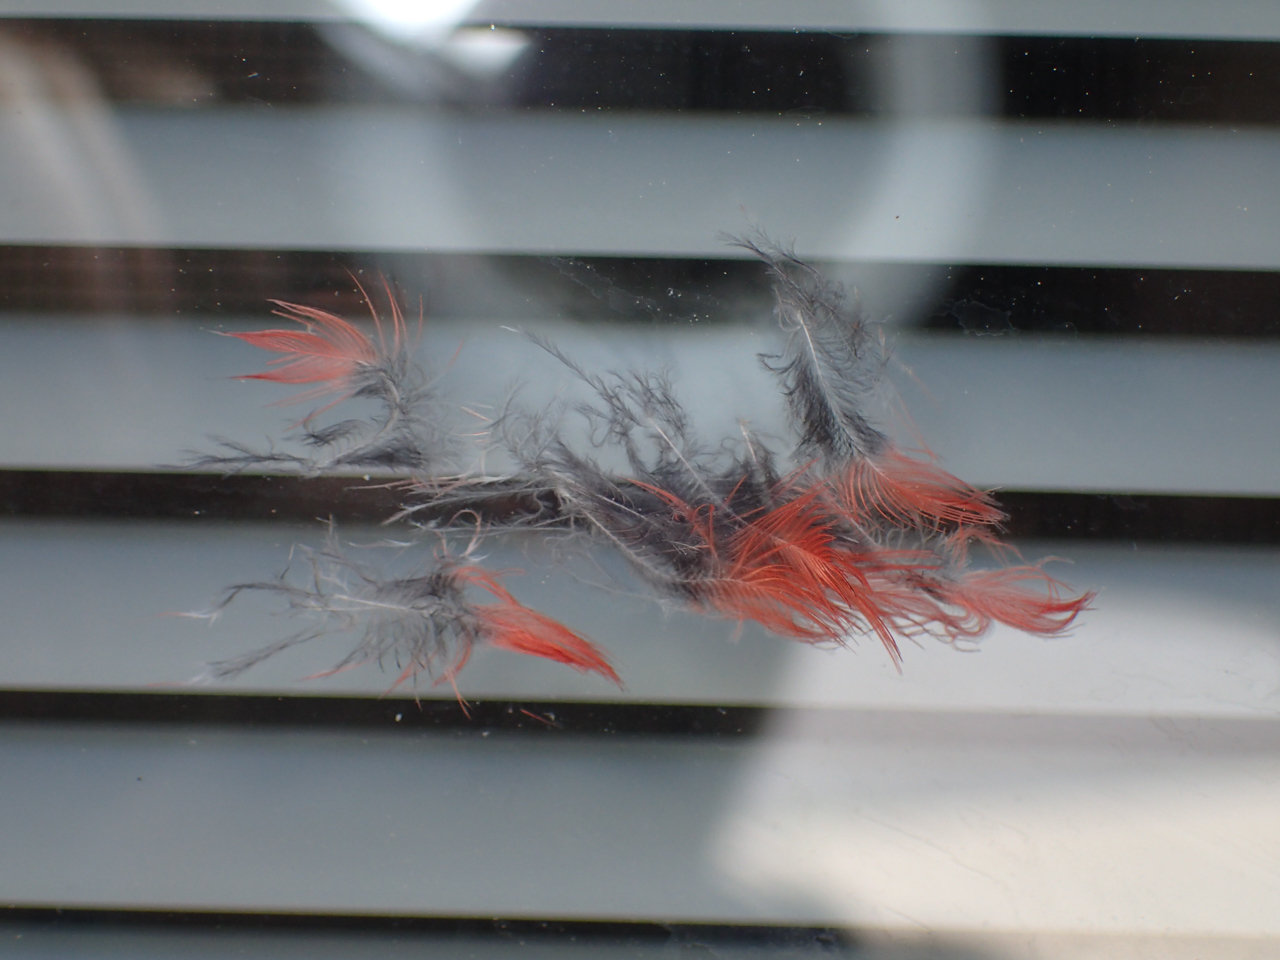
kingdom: Animalia
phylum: Chordata
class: Aves
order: Passeriformes
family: Cardinalidae
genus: Cardinalis
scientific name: Cardinalis cardinalis
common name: Northern cardinal
